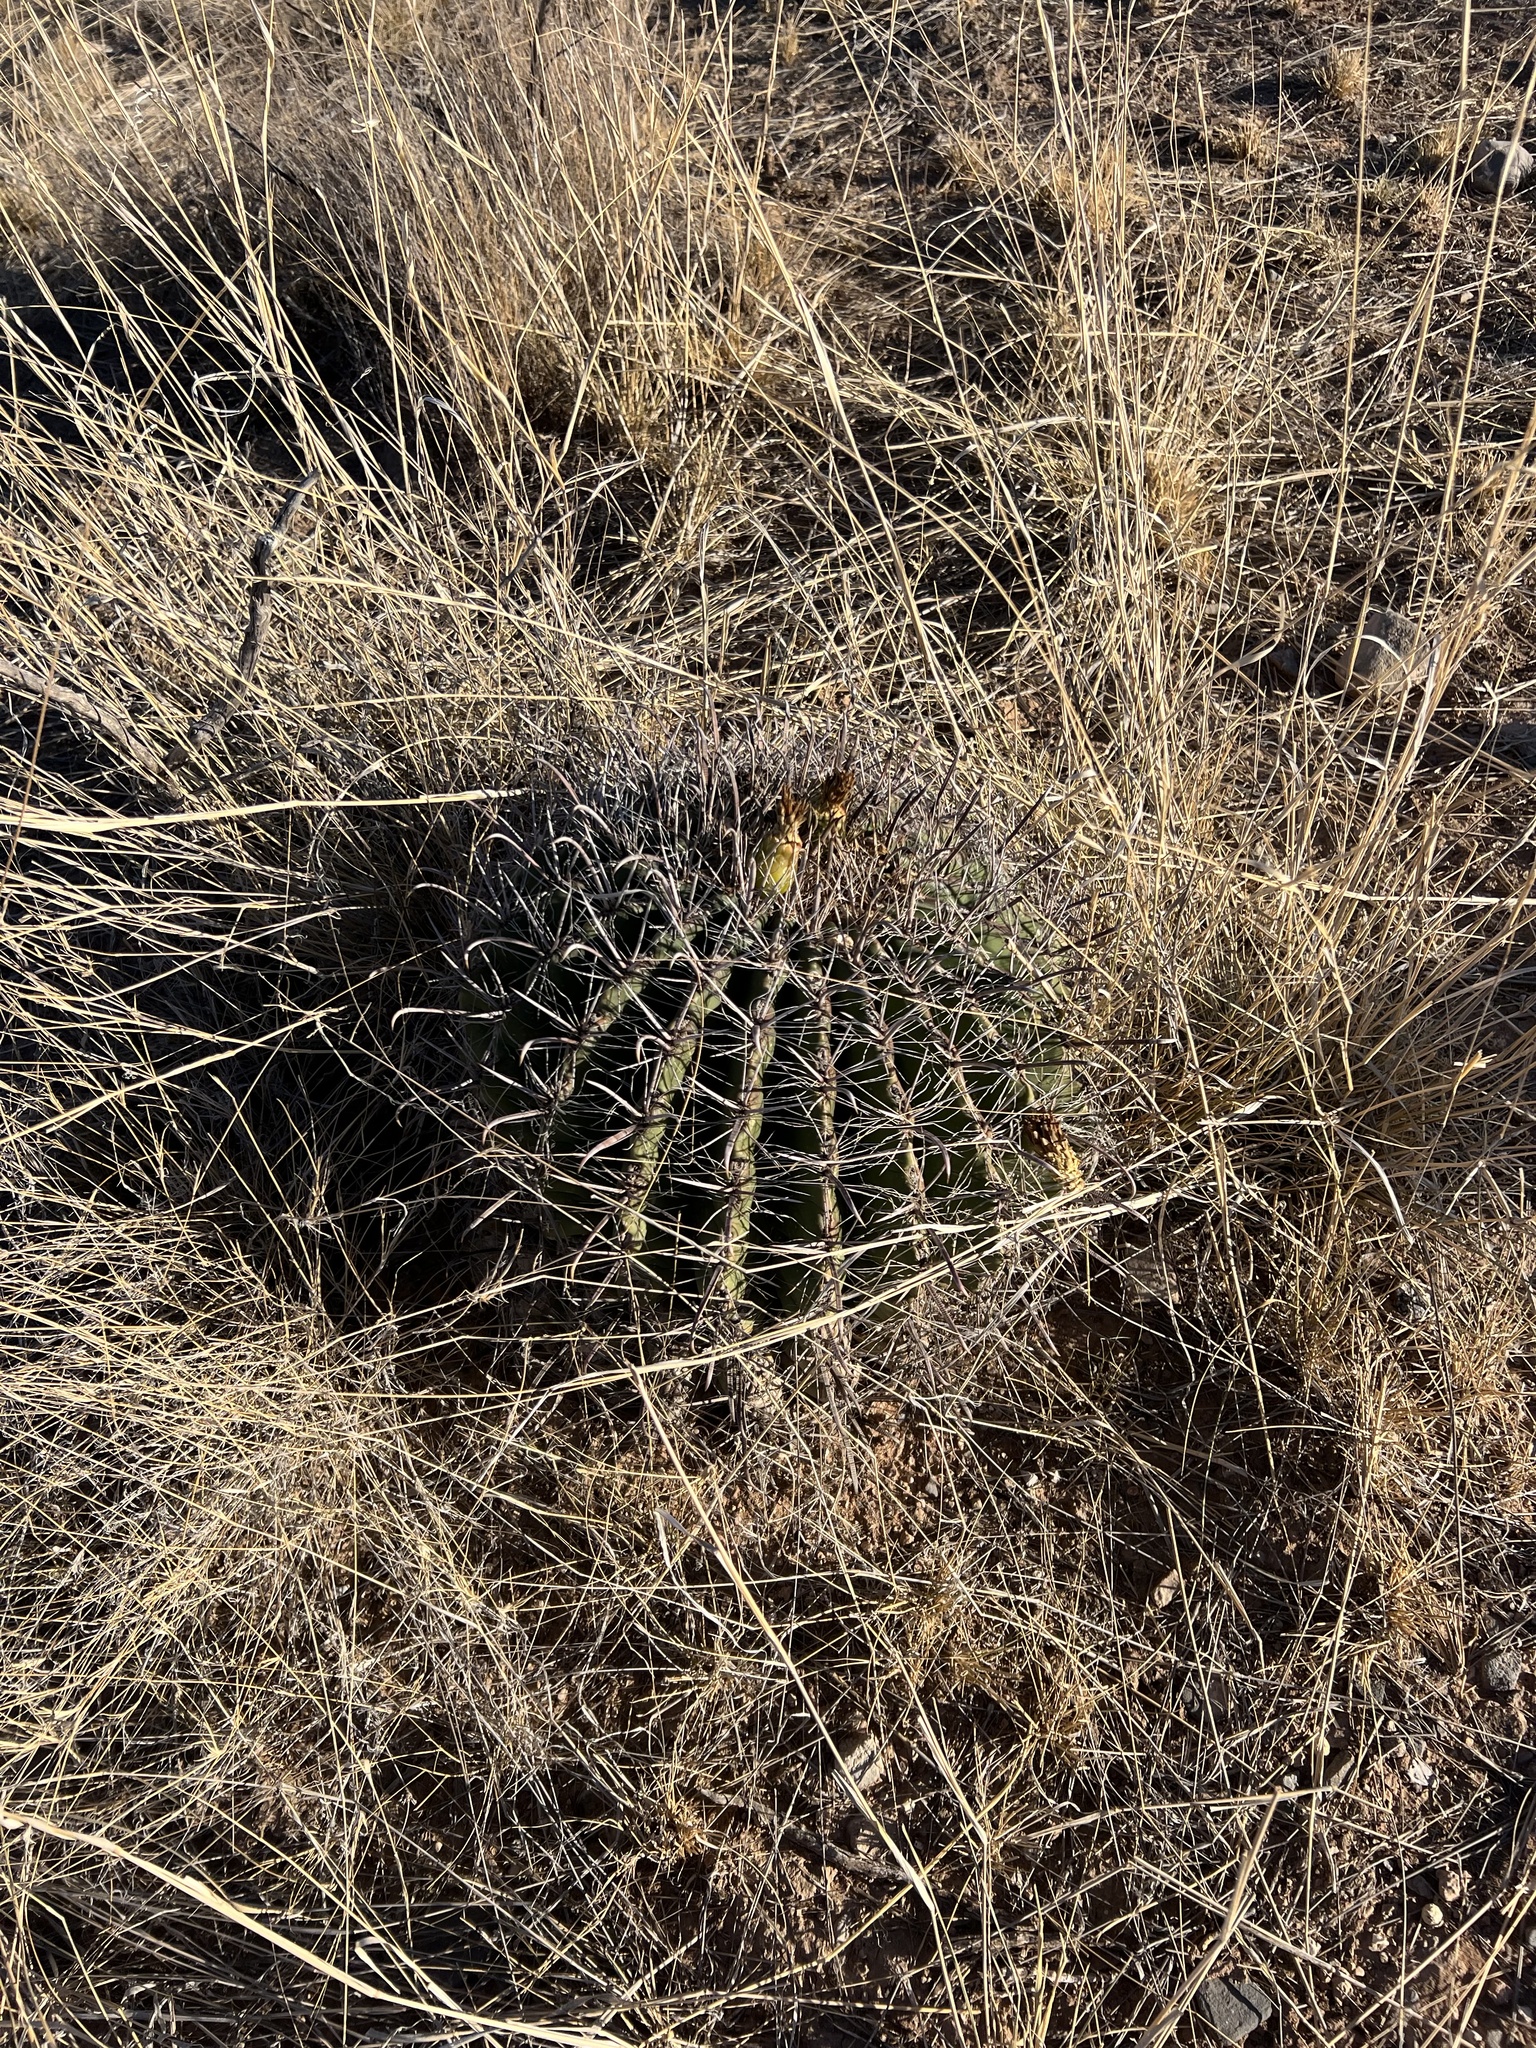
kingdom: Plantae
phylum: Tracheophyta
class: Magnoliopsida
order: Caryophyllales
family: Cactaceae
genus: Ferocactus
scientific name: Ferocactus wislizeni
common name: Candy barrel cactus
